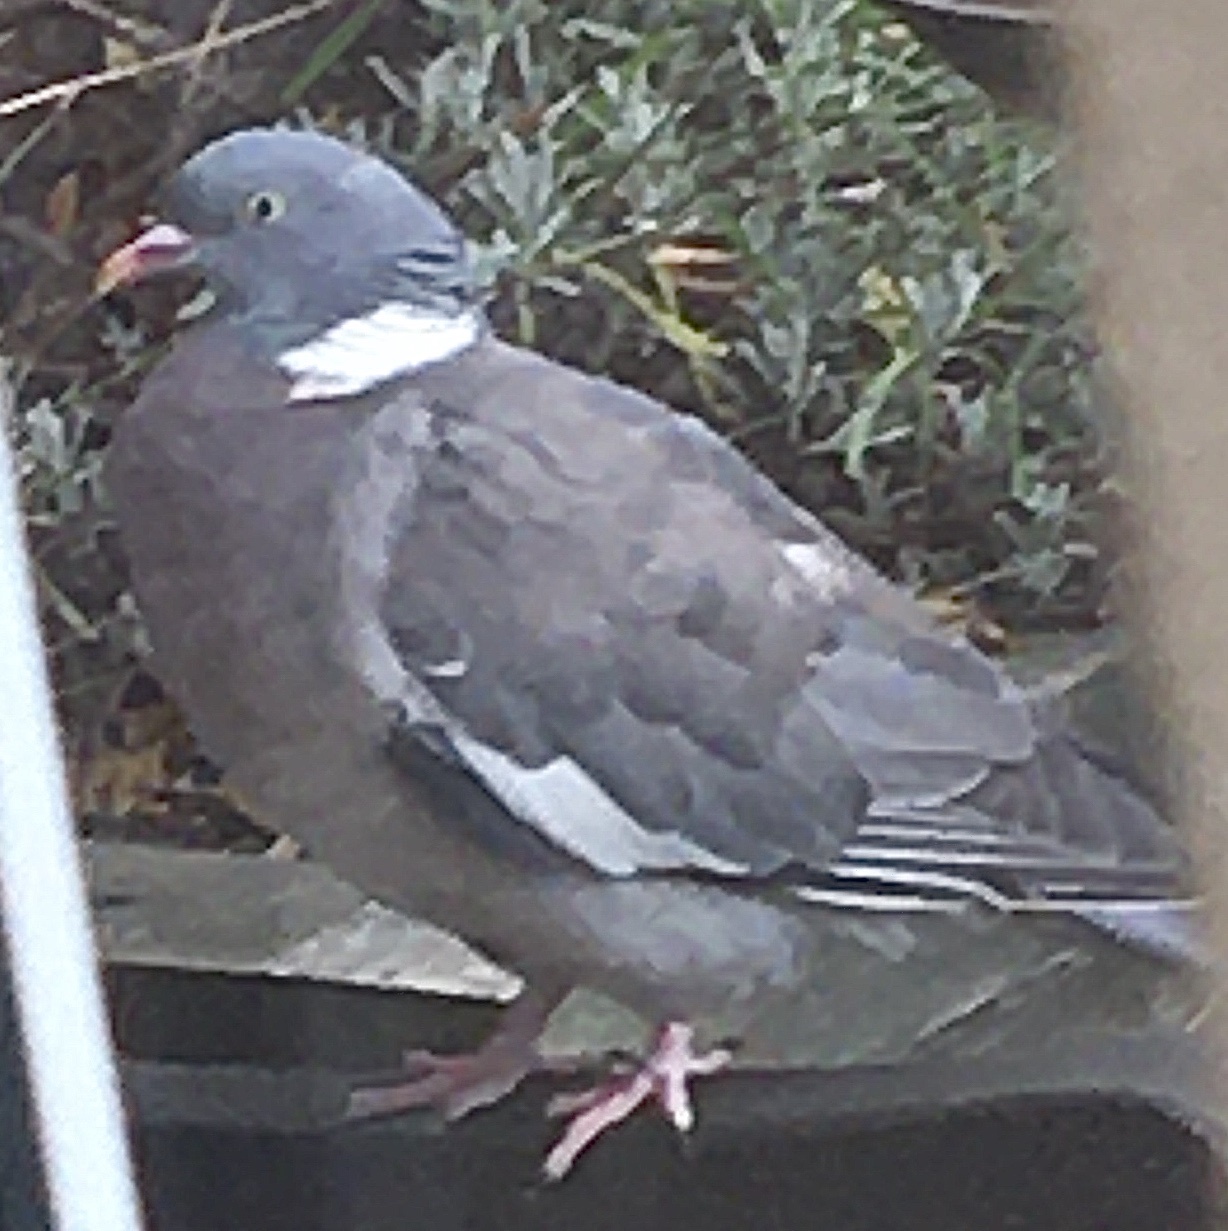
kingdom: Animalia
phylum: Chordata
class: Aves
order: Columbiformes
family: Columbidae
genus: Columba
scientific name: Columba palumbus
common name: Common wood pigeon
